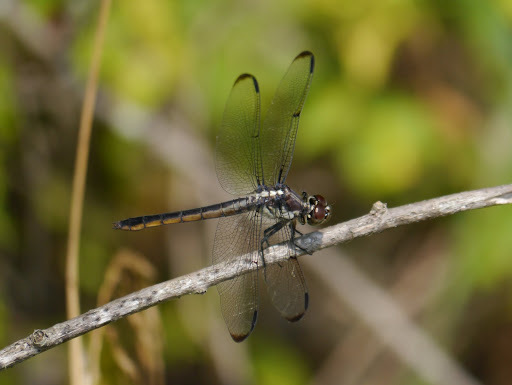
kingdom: Animalia
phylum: Arthropoda
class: Insecta
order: Odonata
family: Libellulidae
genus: Libellula
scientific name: Libellula incesta
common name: Slaty skimmer
